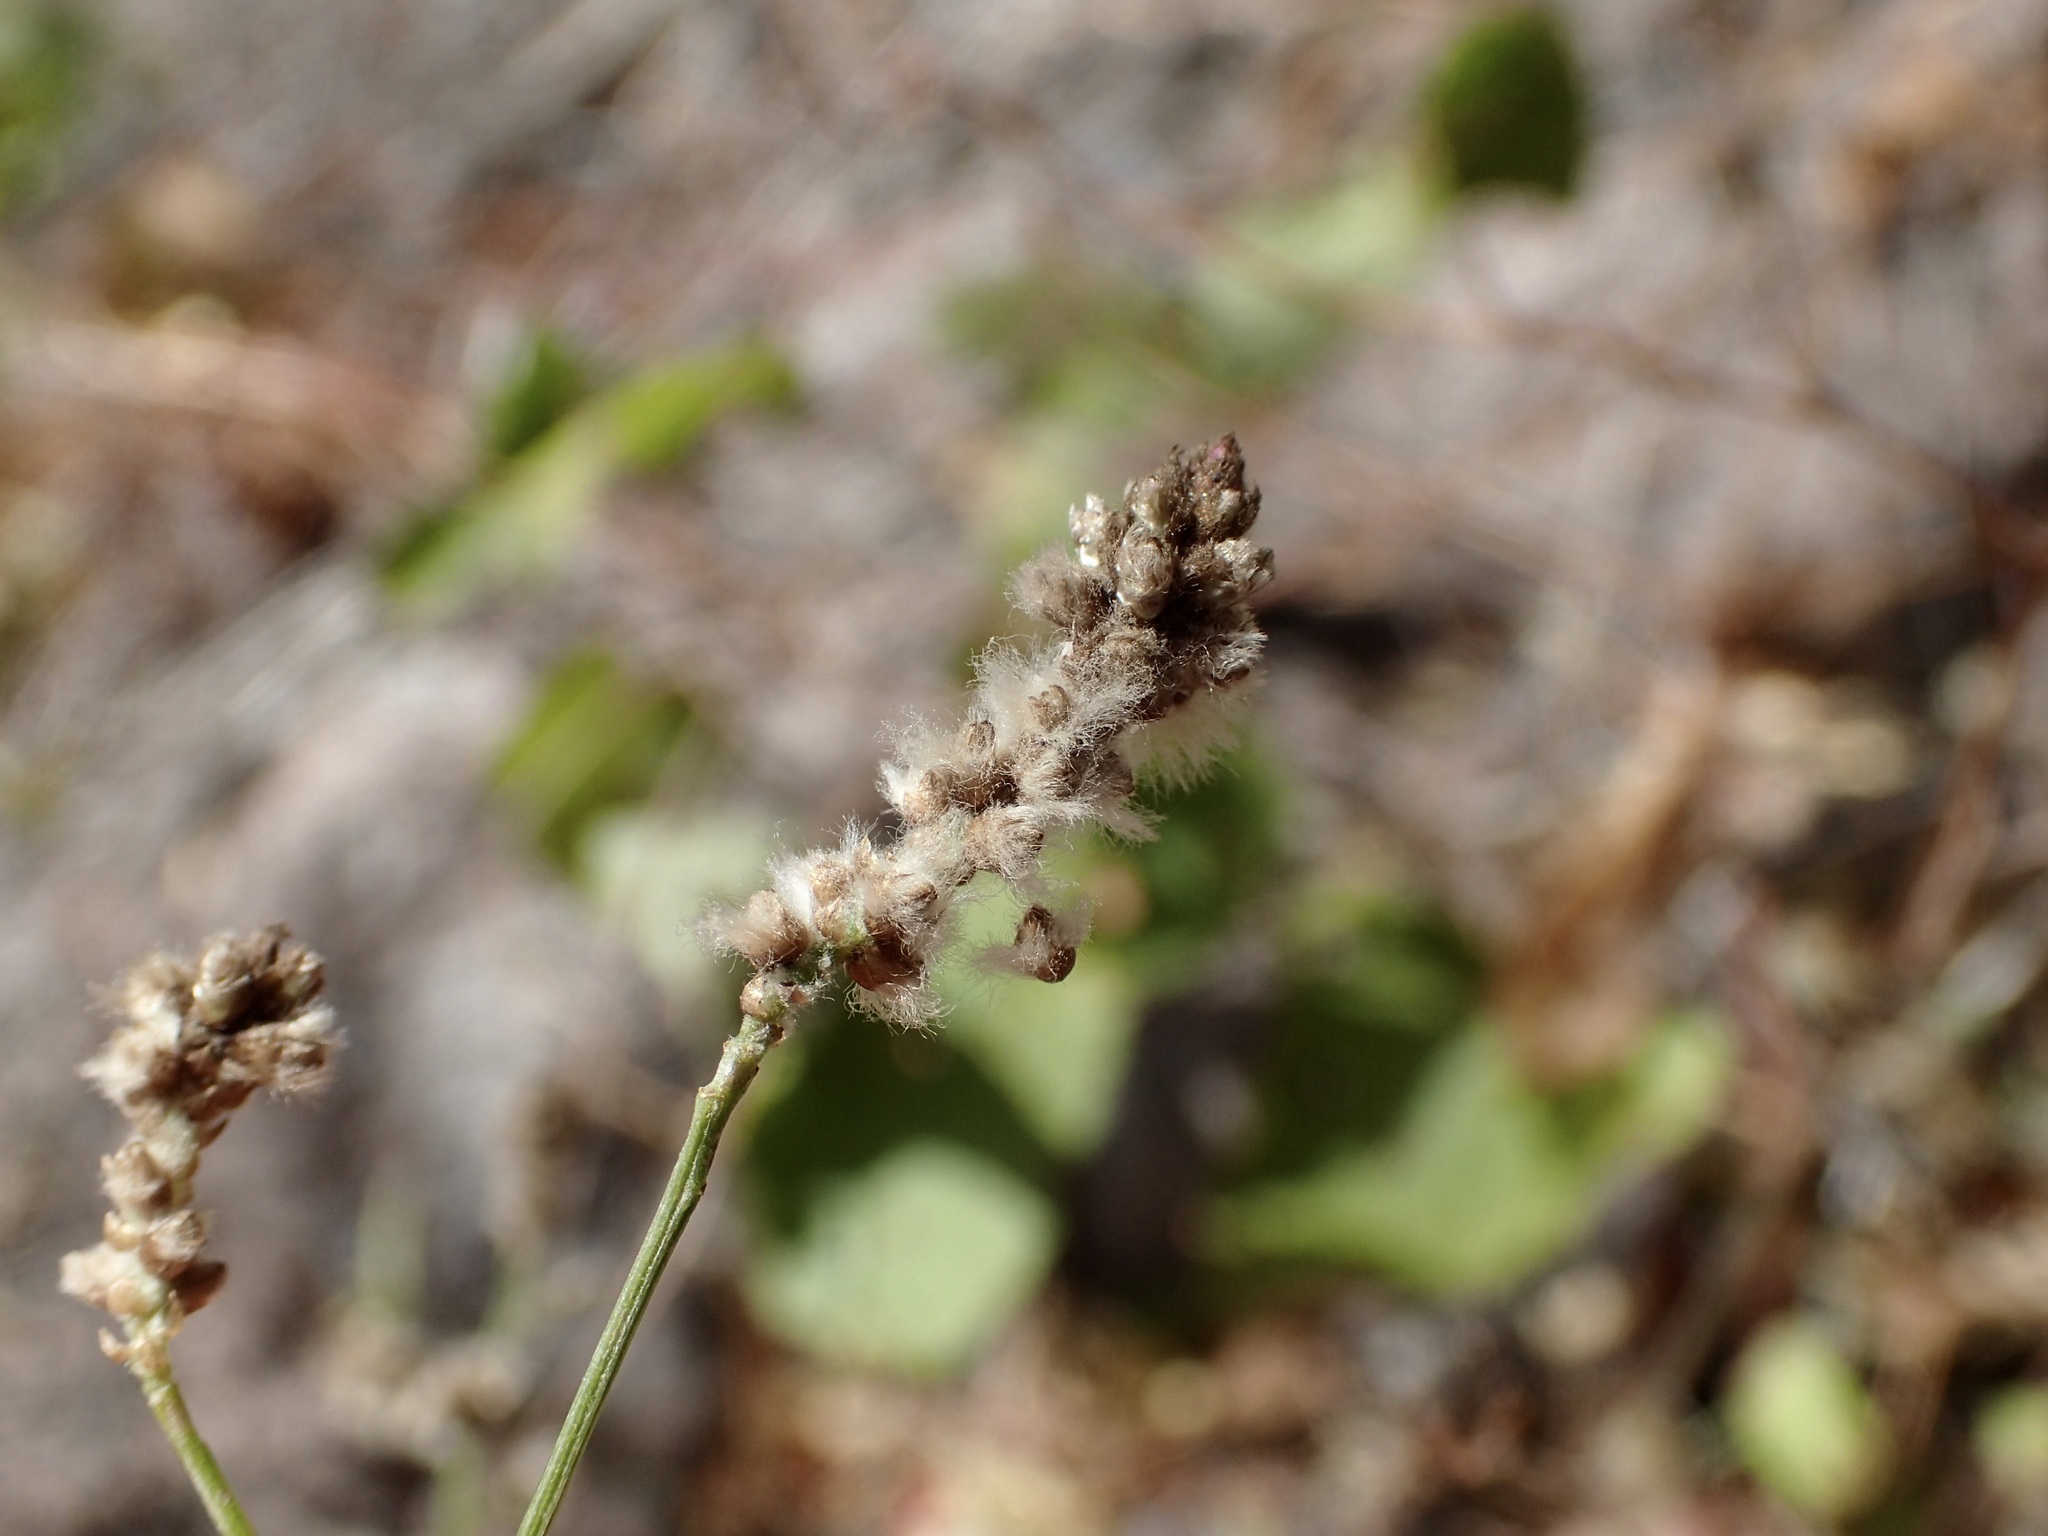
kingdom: Plantae
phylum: Tracheophyta
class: Magnoliopsida
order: Caryophyllales
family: Amaranthaceae
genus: Iresine
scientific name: Iresine angustifolia
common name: White snowplant
